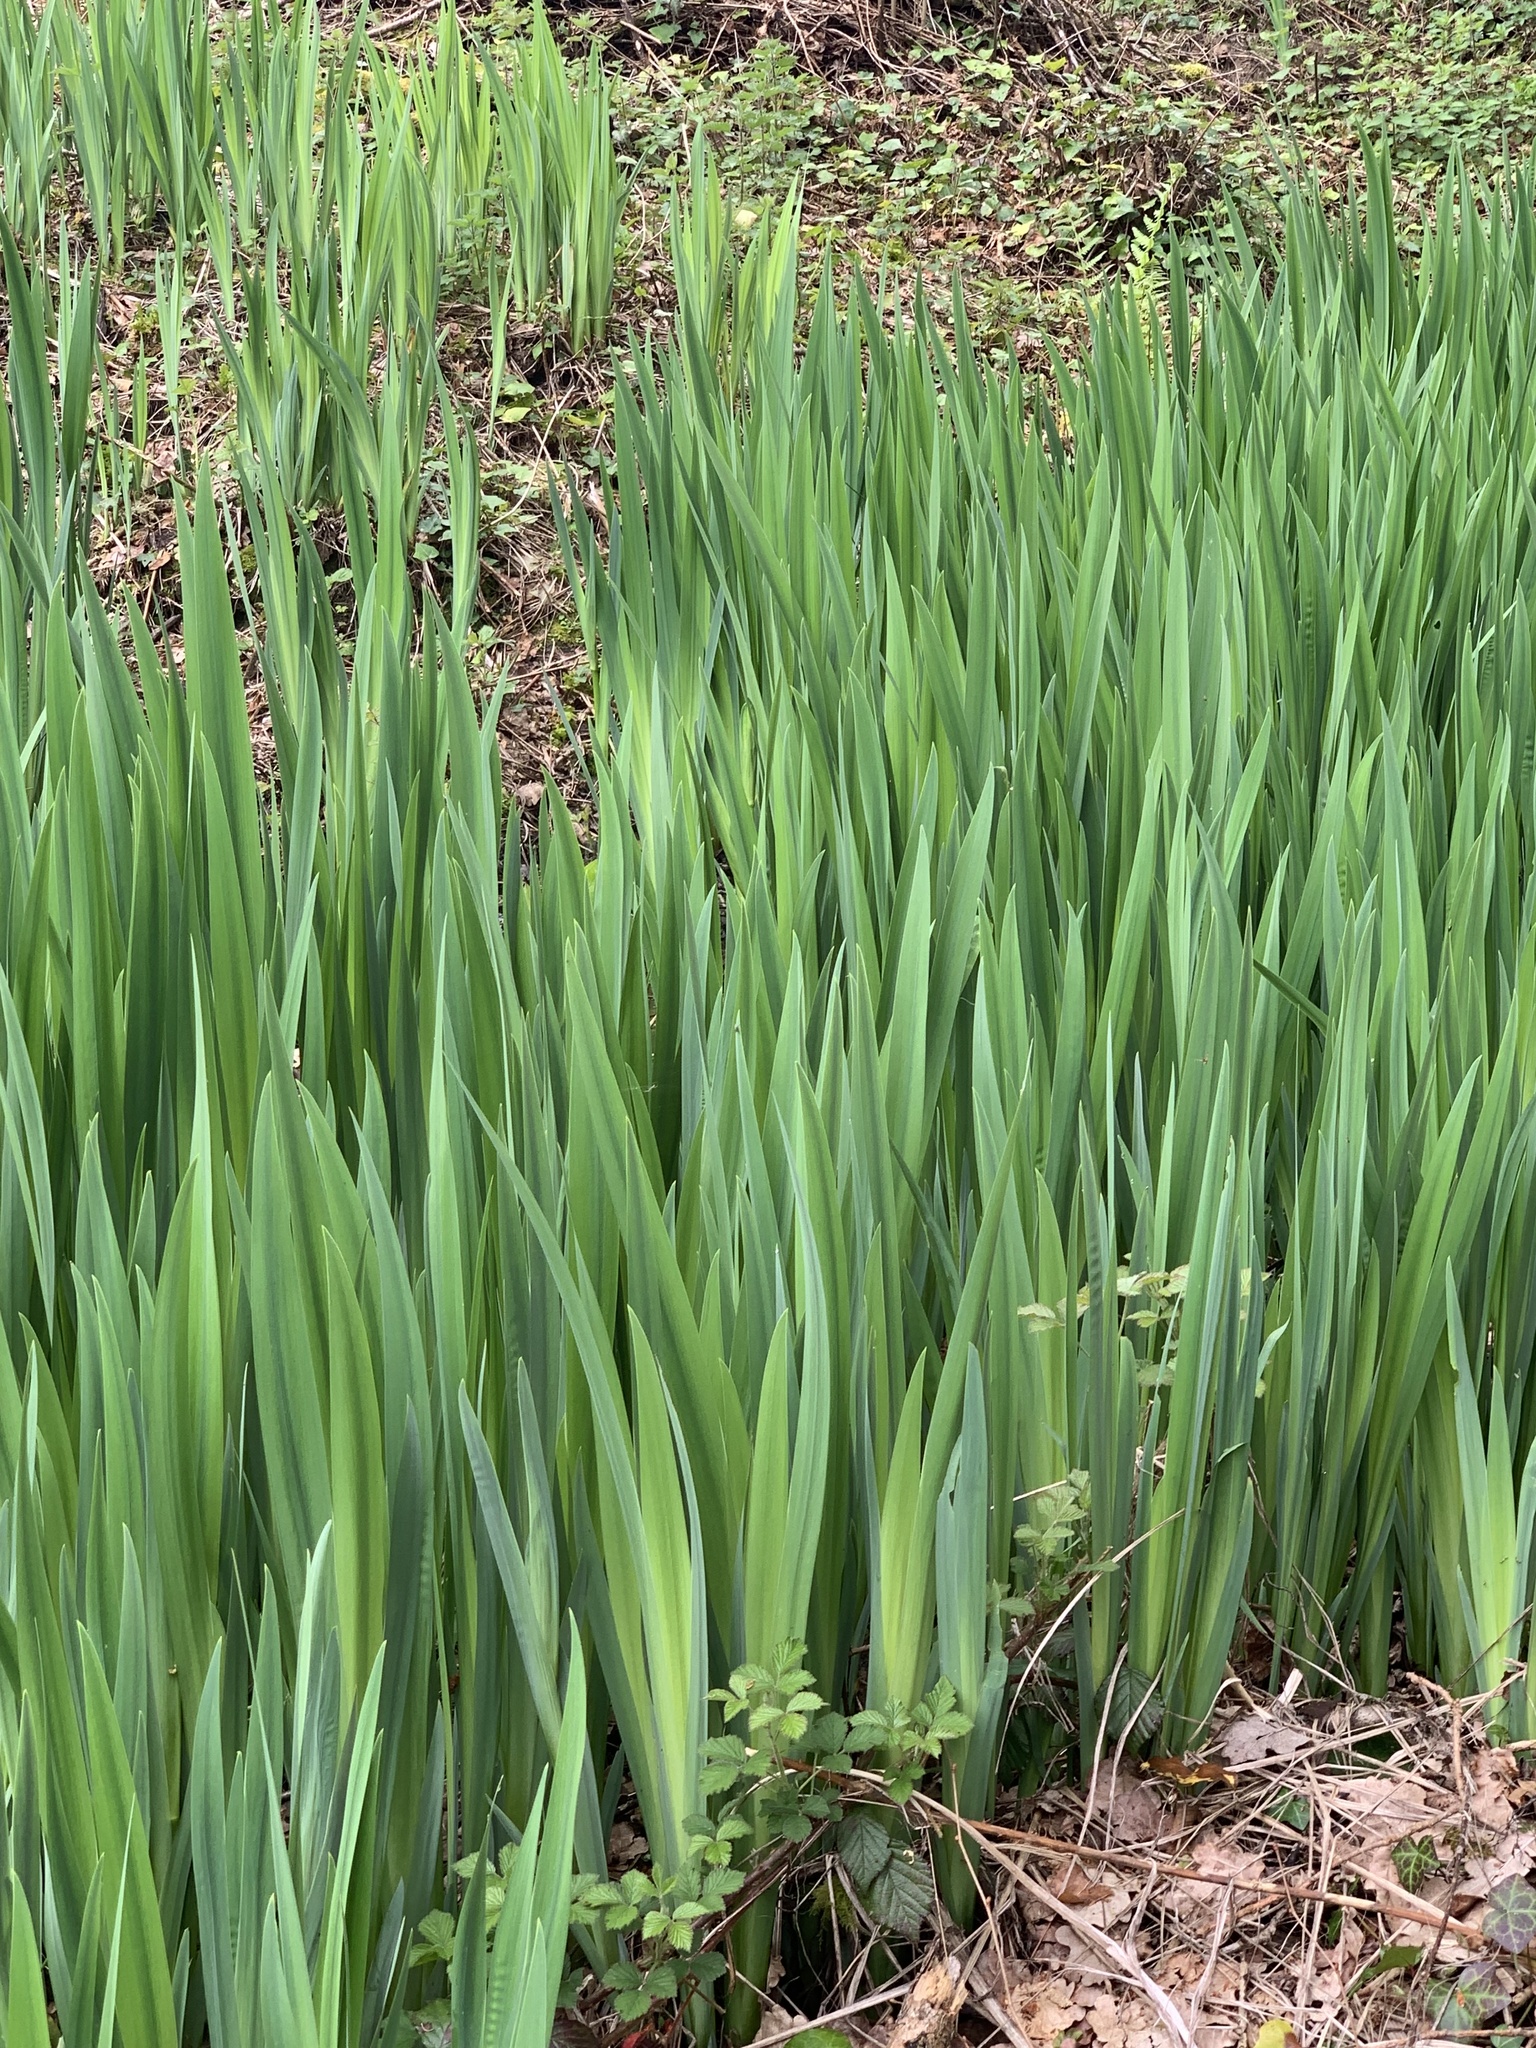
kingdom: Plantae
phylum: Tracheophyta
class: Liliopsida
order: Asparagales
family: Iridaceae
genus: Iris
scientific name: Iris pseudacorus
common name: Yellow flag
